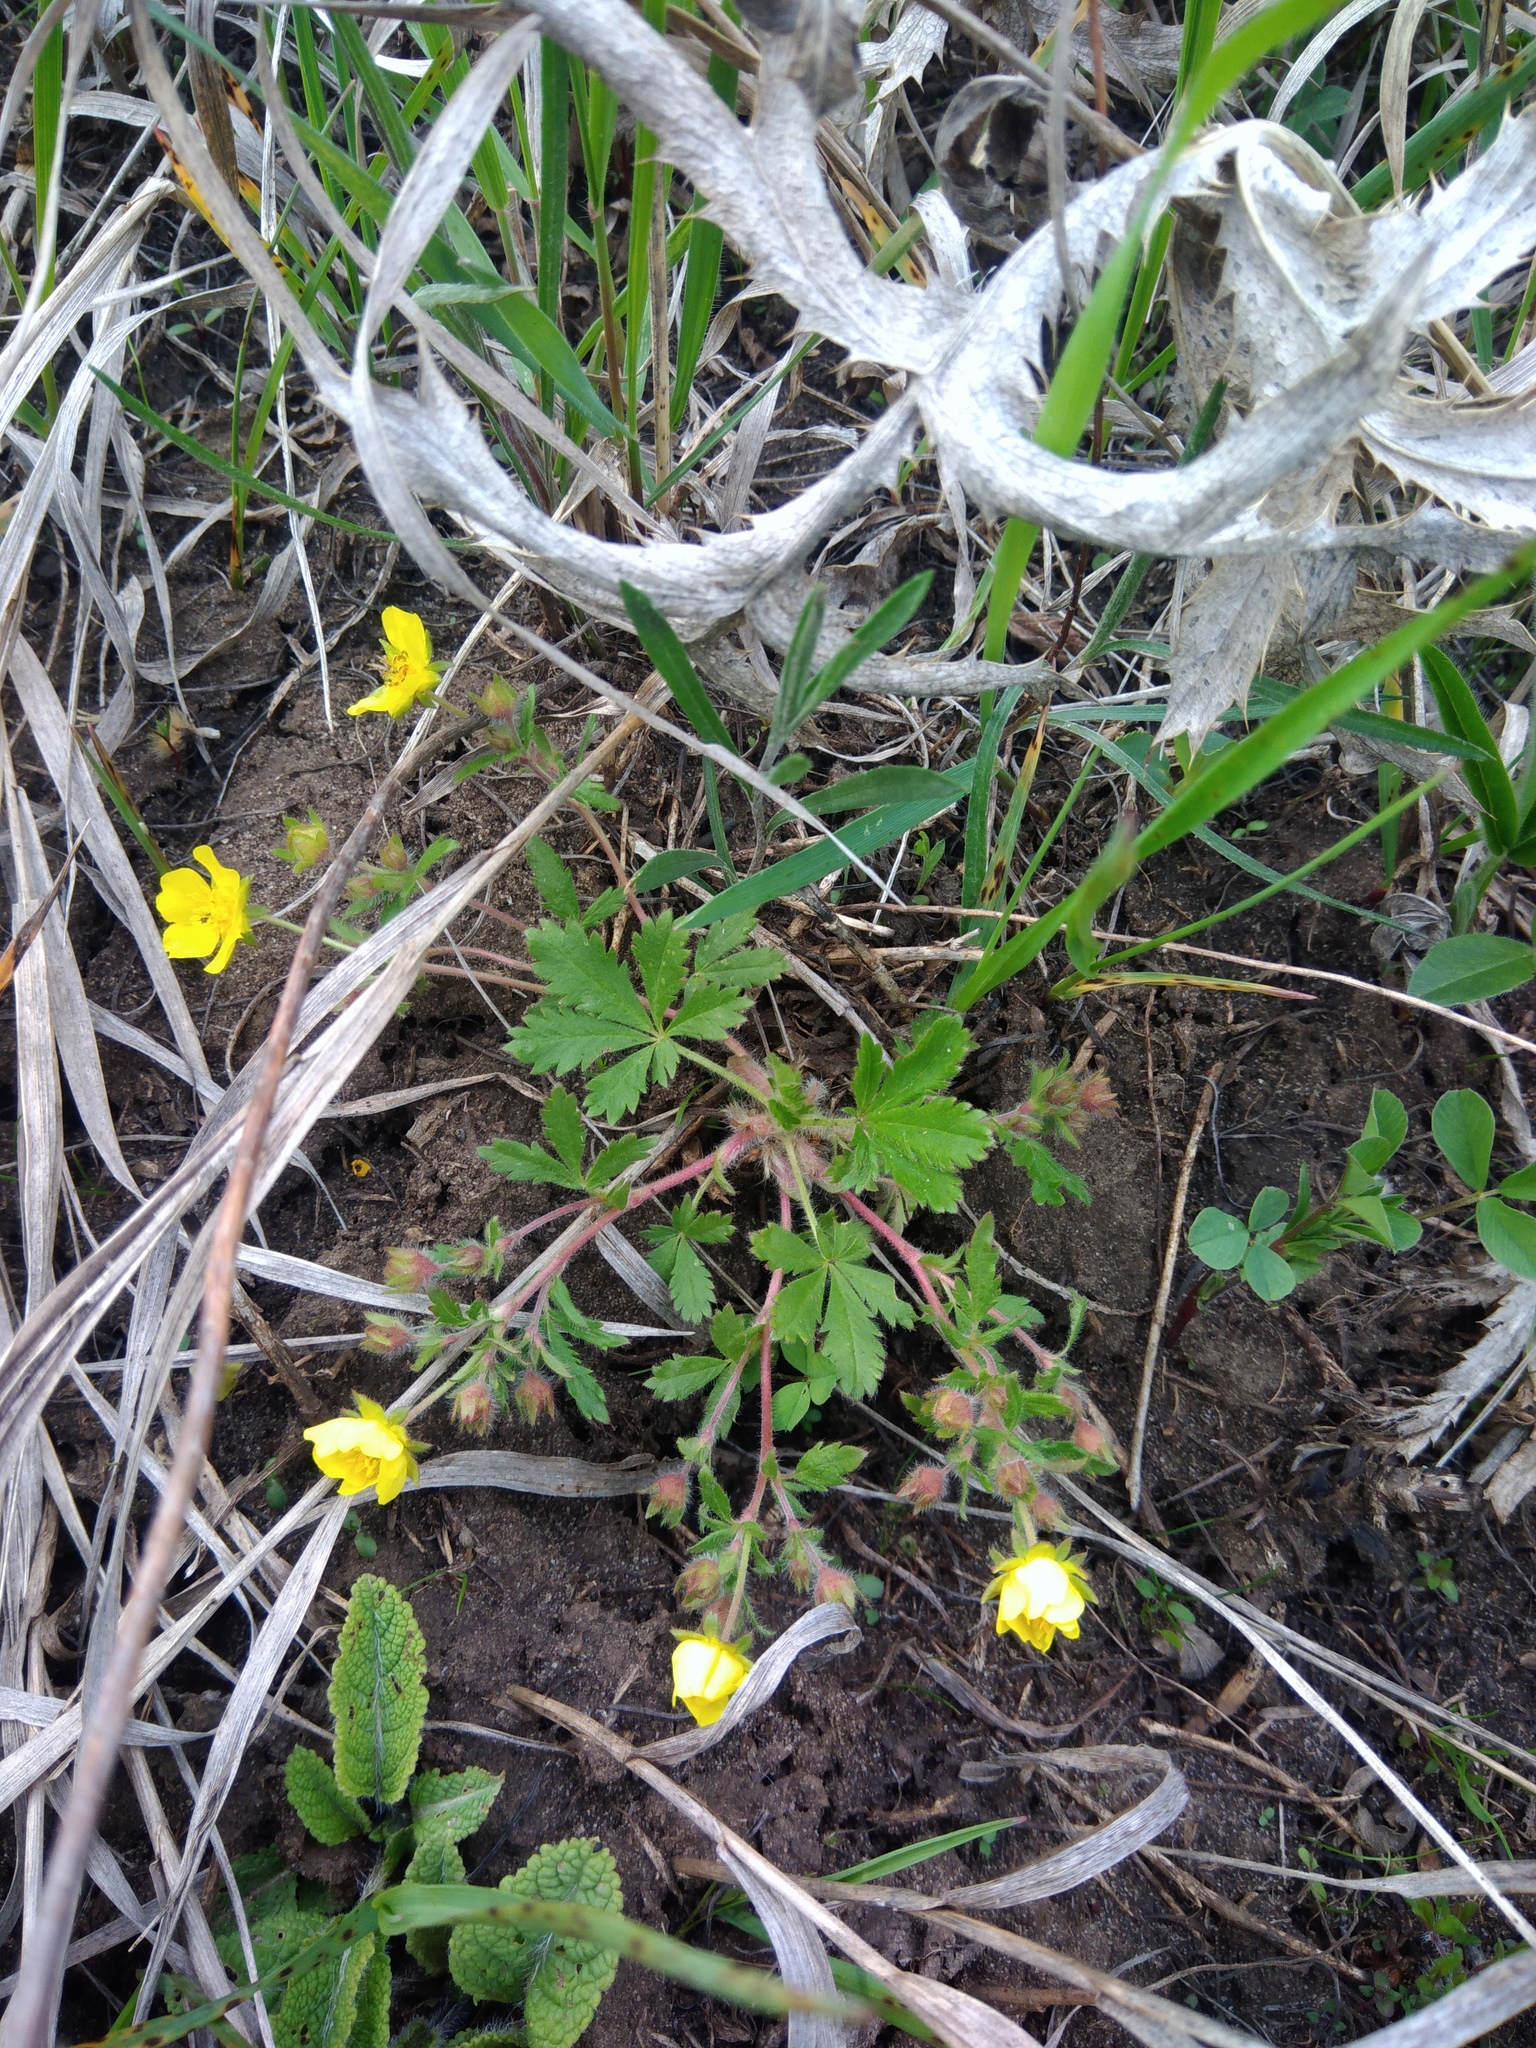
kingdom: Plantae
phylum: Tracheophyta
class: Magnoliopsida
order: Rosales
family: Rosaceae
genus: Potentilla
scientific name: Potentilla humifusa
